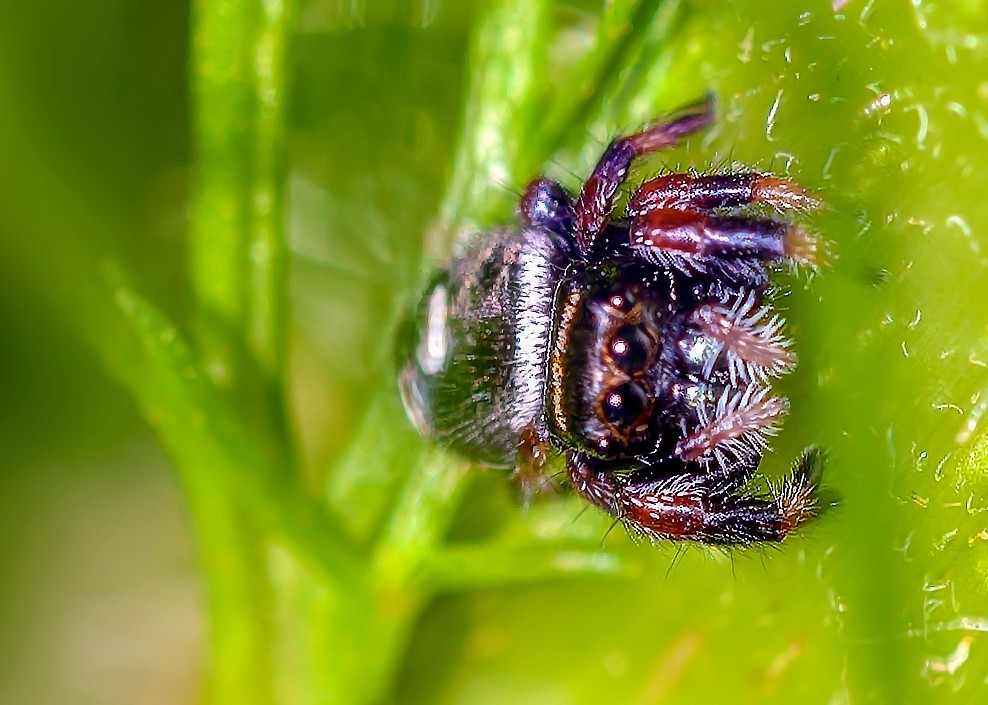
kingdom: Animalia
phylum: Arthropoda
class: Arachnida
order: Araneae
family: Salticidae
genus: Phidippus
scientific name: Phidippus regius
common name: Regal jumper
